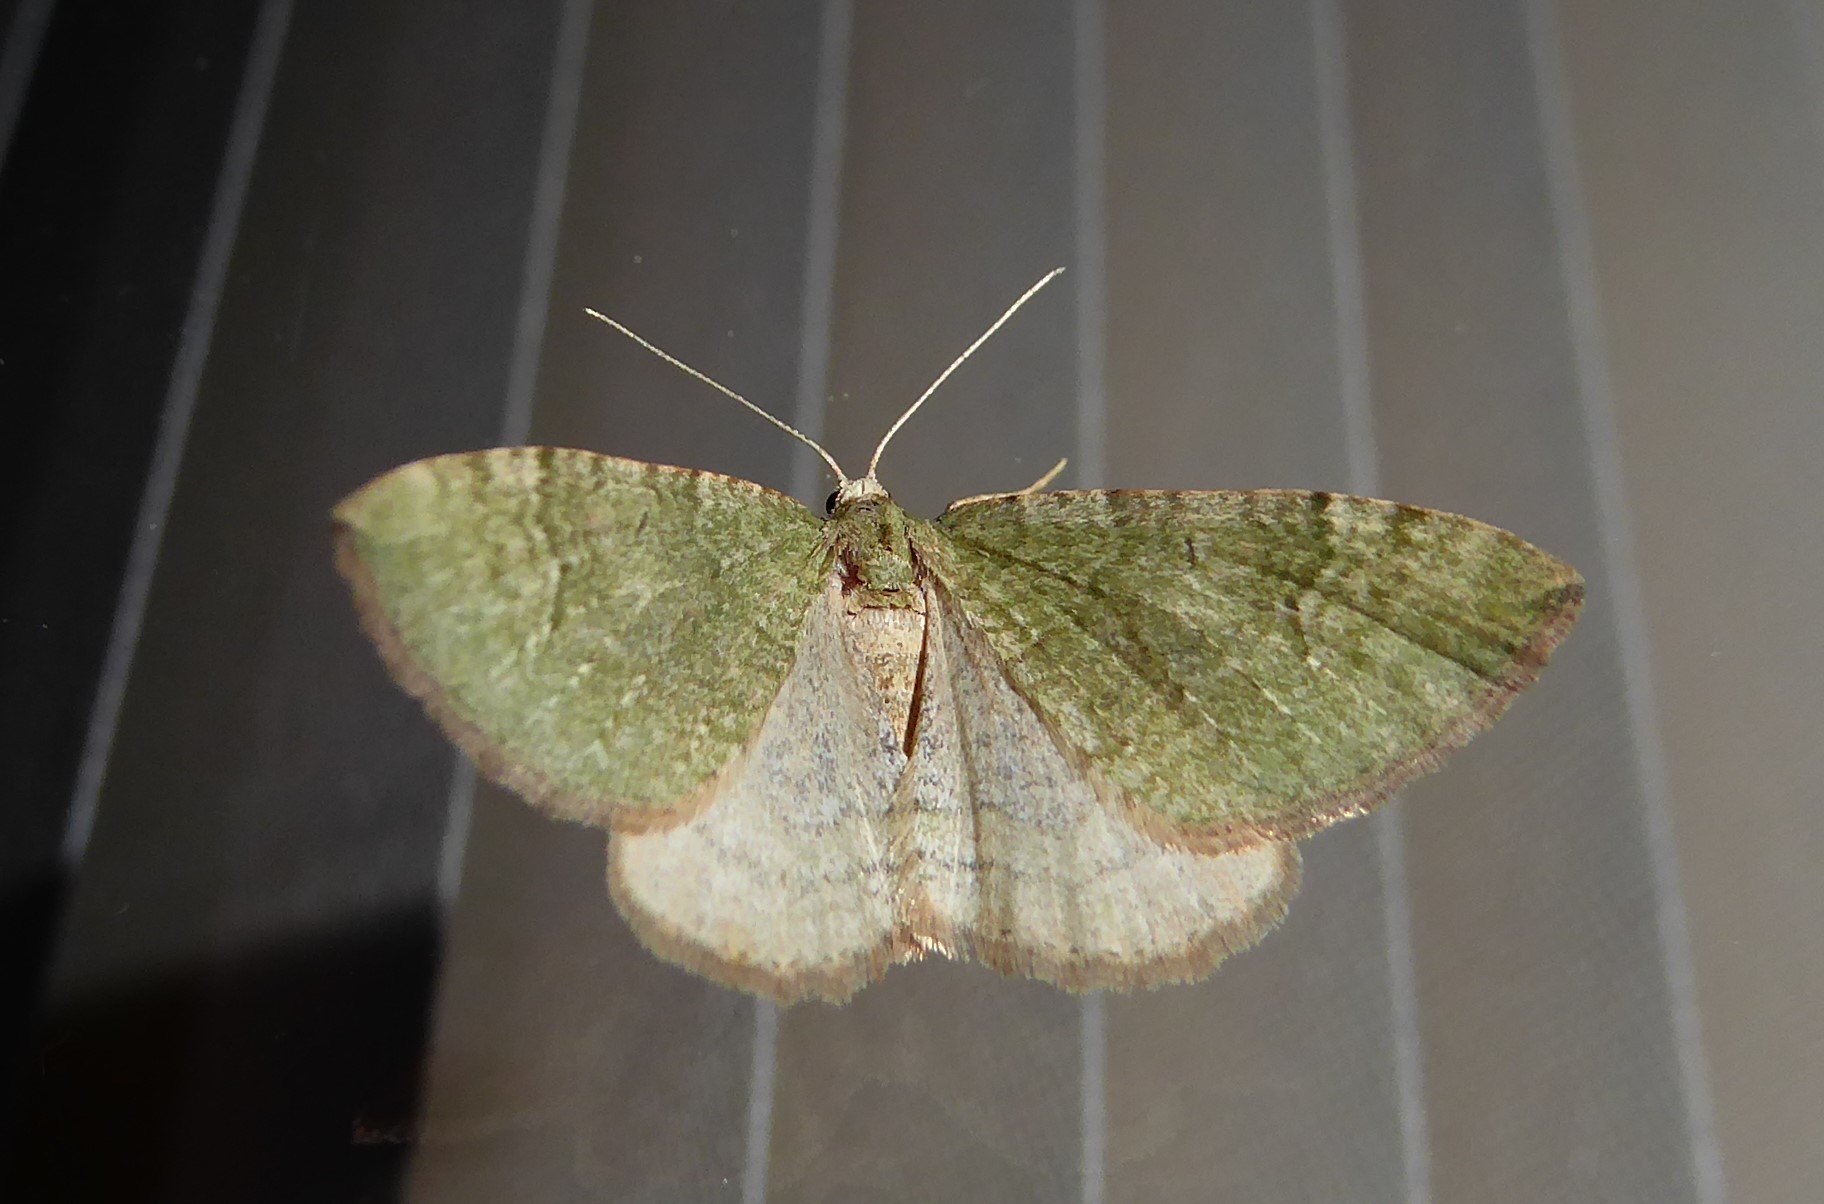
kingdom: Animalia
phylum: Arthropoda
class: Insecta
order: Lepidoptera
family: Geometridae
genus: Epyaxa
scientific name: Epyaxa rosearia
